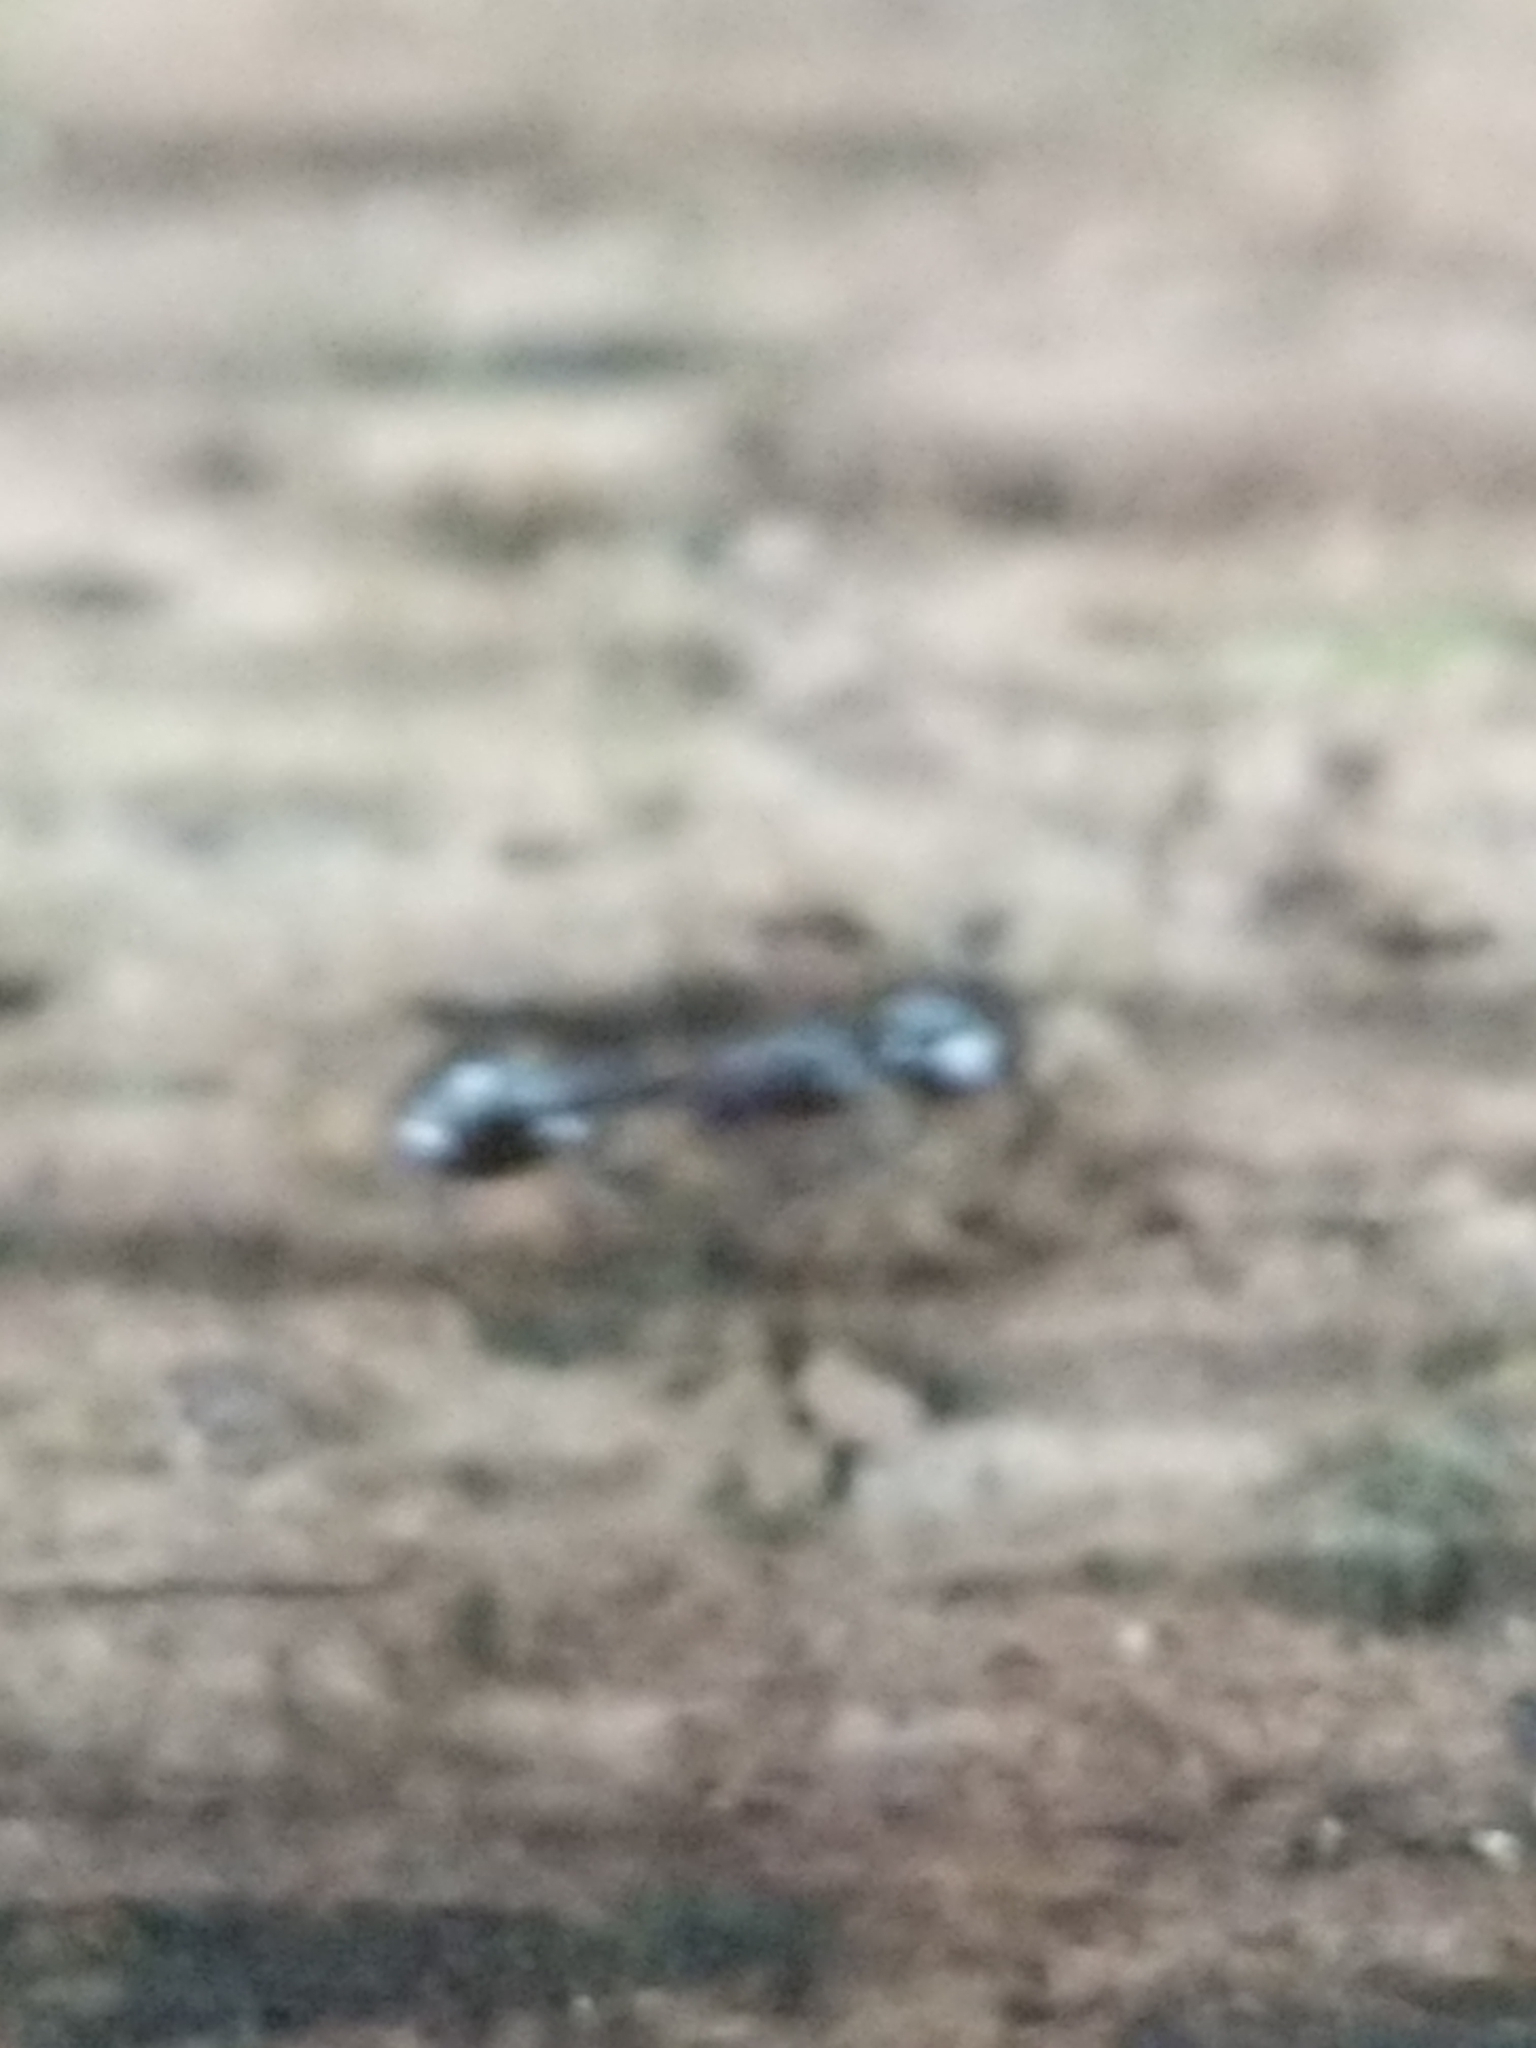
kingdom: Animalia
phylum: Arthropoda
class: Insecta
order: Hymenoptera
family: Formicidae
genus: Temnothorax
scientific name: Temnothorax longispinosus
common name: Long-spined acorn ant
